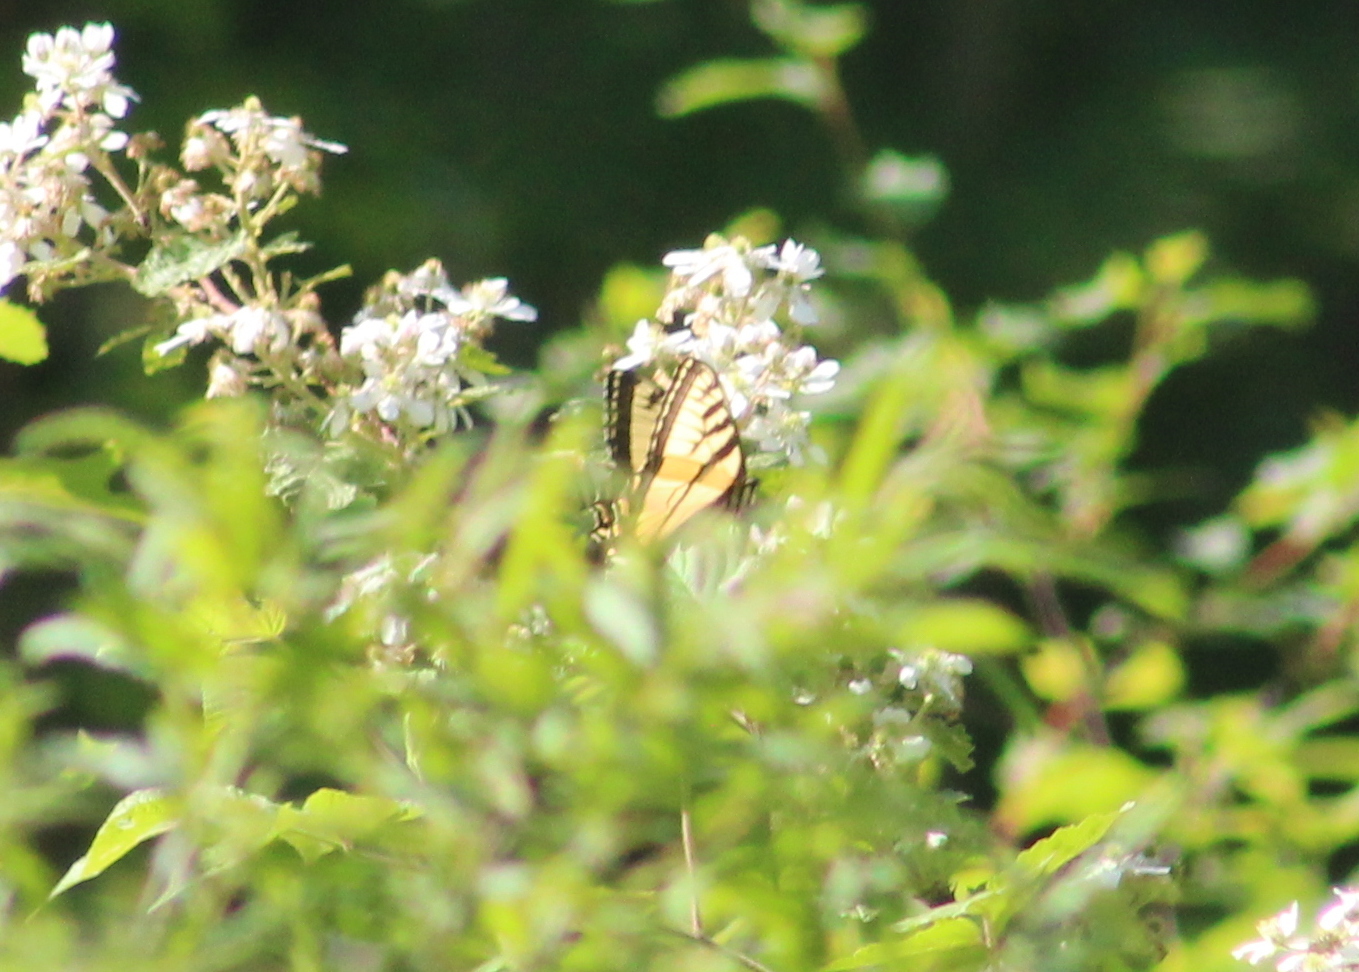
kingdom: Animalia
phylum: Arthropoda
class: Insecta
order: Lepidoptera
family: Papilionidae
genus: Papilio
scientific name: Papilio canadensis
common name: Canadian tiger swallowtail
